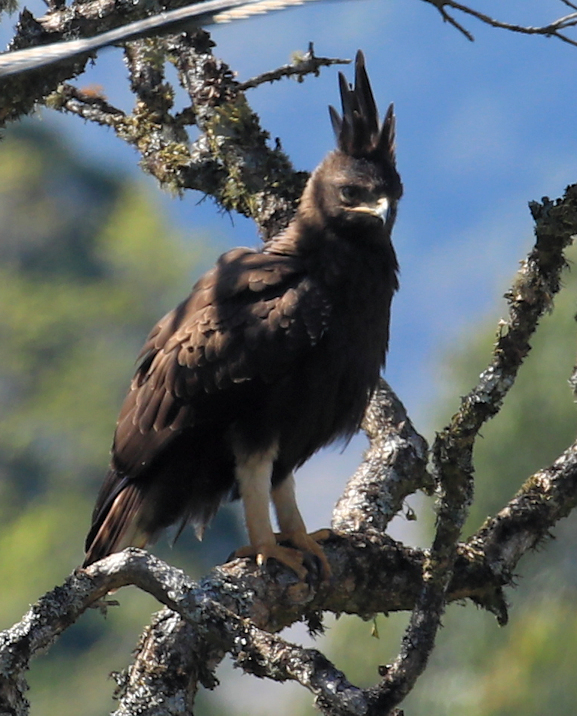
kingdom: Animalia
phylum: Chordata
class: Aves
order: Accipitriformes
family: Accipitridae
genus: Lophaetus
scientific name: Lophaetus occipitalis
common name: Long-crested eagle
